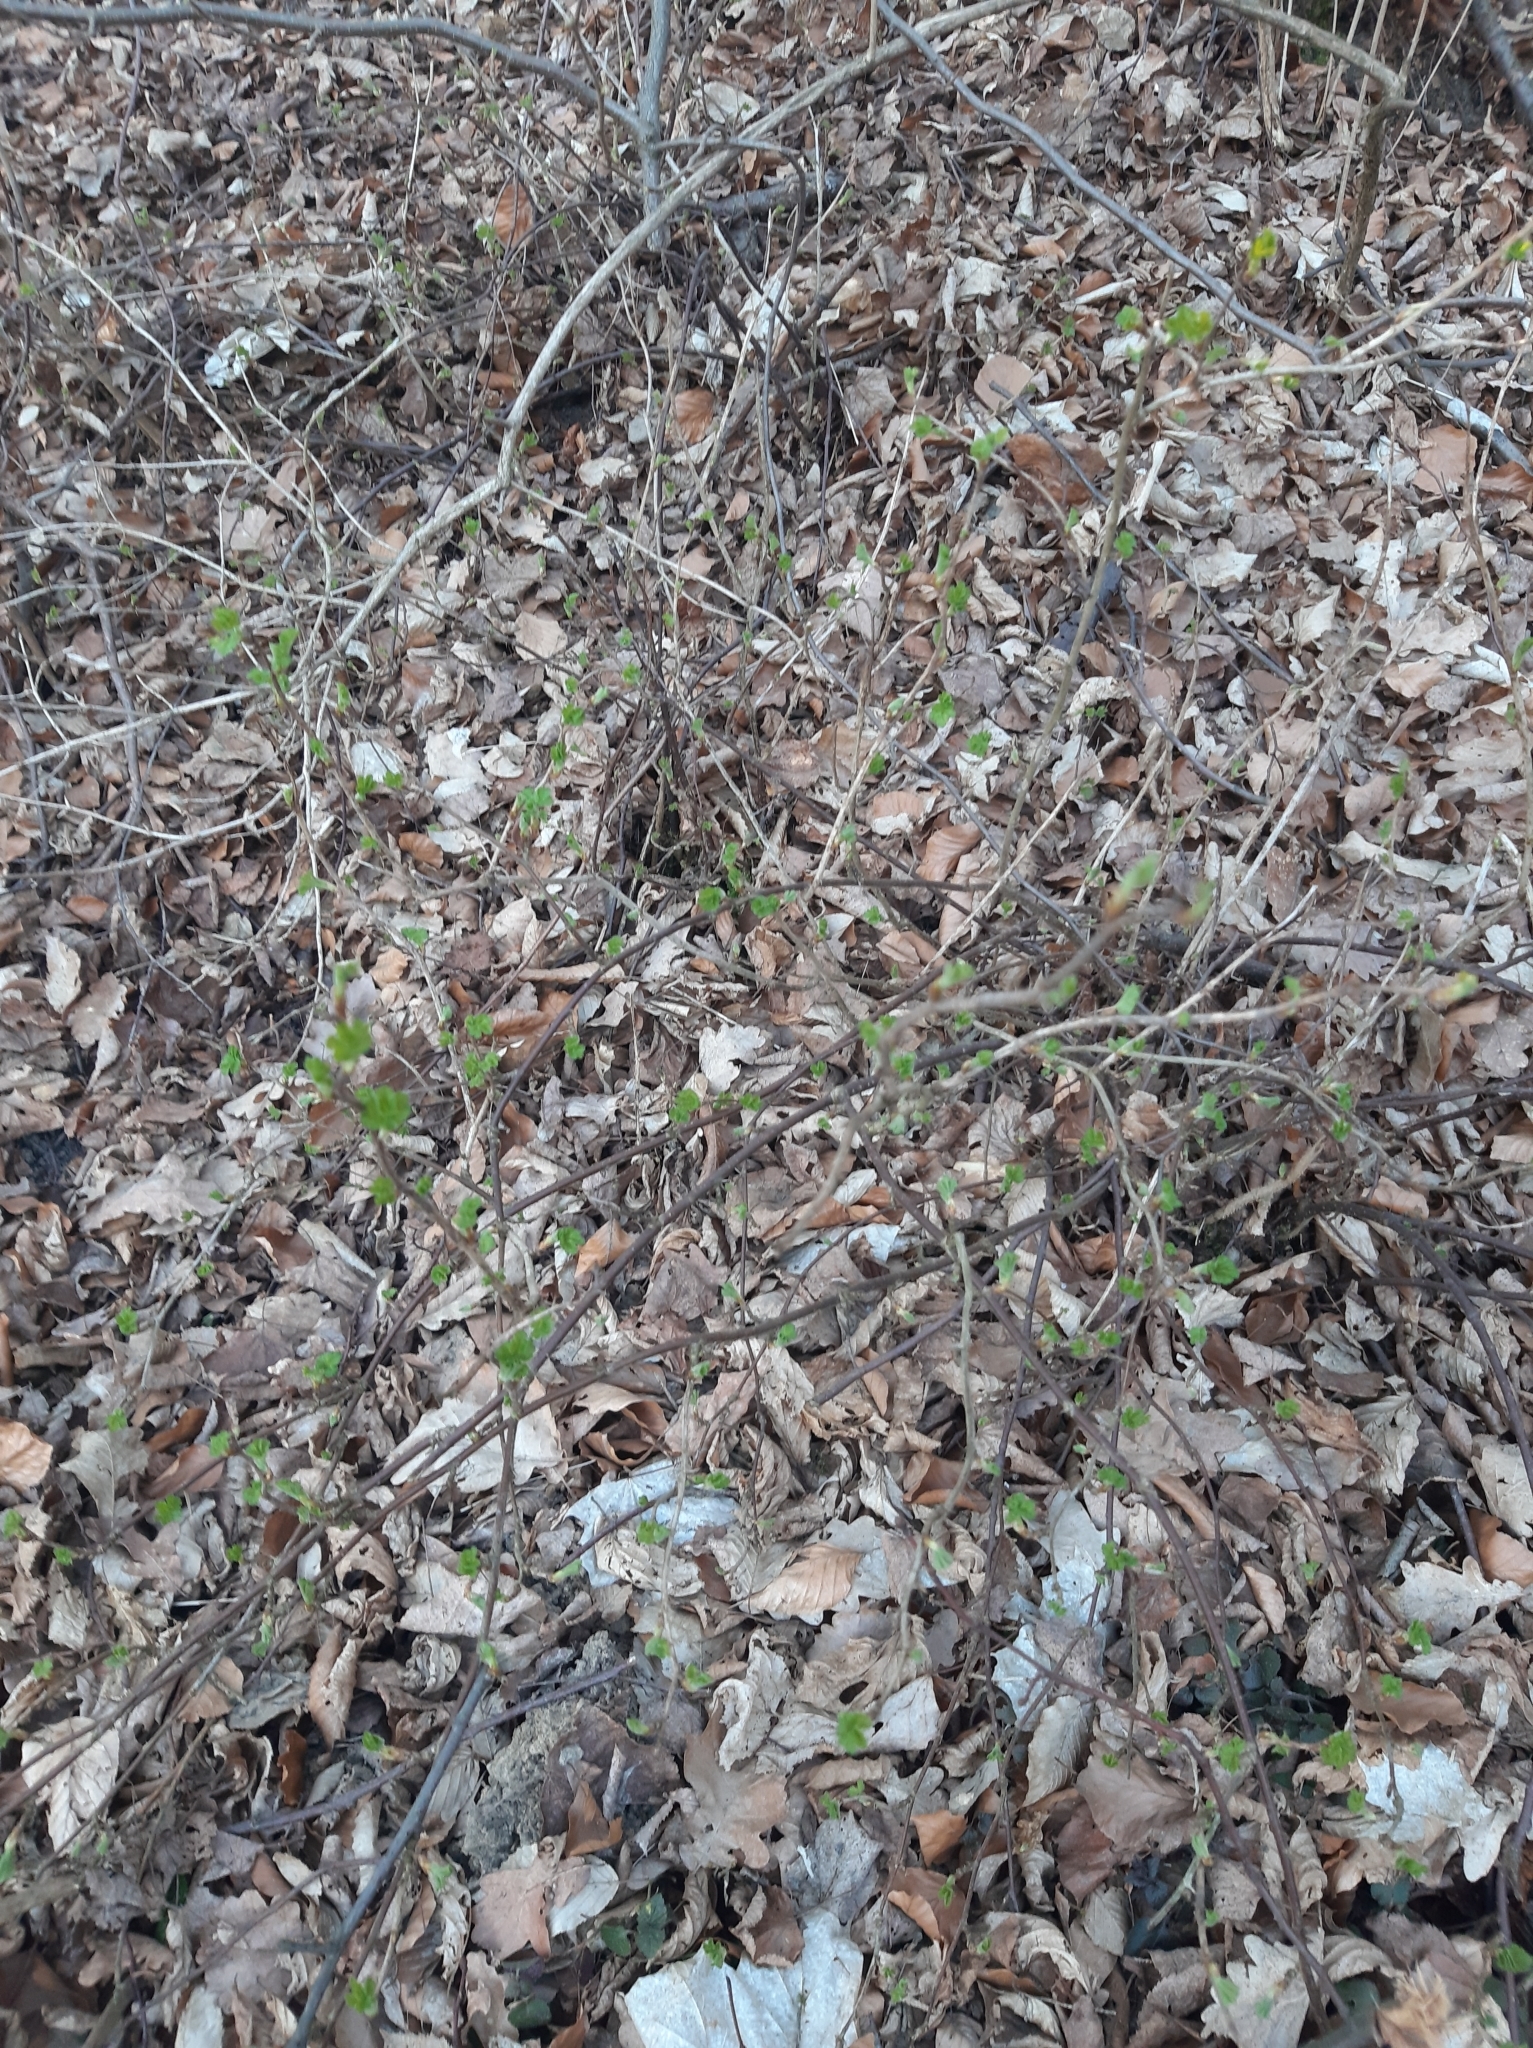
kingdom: Plantae
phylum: Tracheophyta
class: Magnoliopsida
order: Saxifragales
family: Grossulariaceae
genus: Ribes
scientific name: Ribes uva-crispa
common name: Gooseberry
